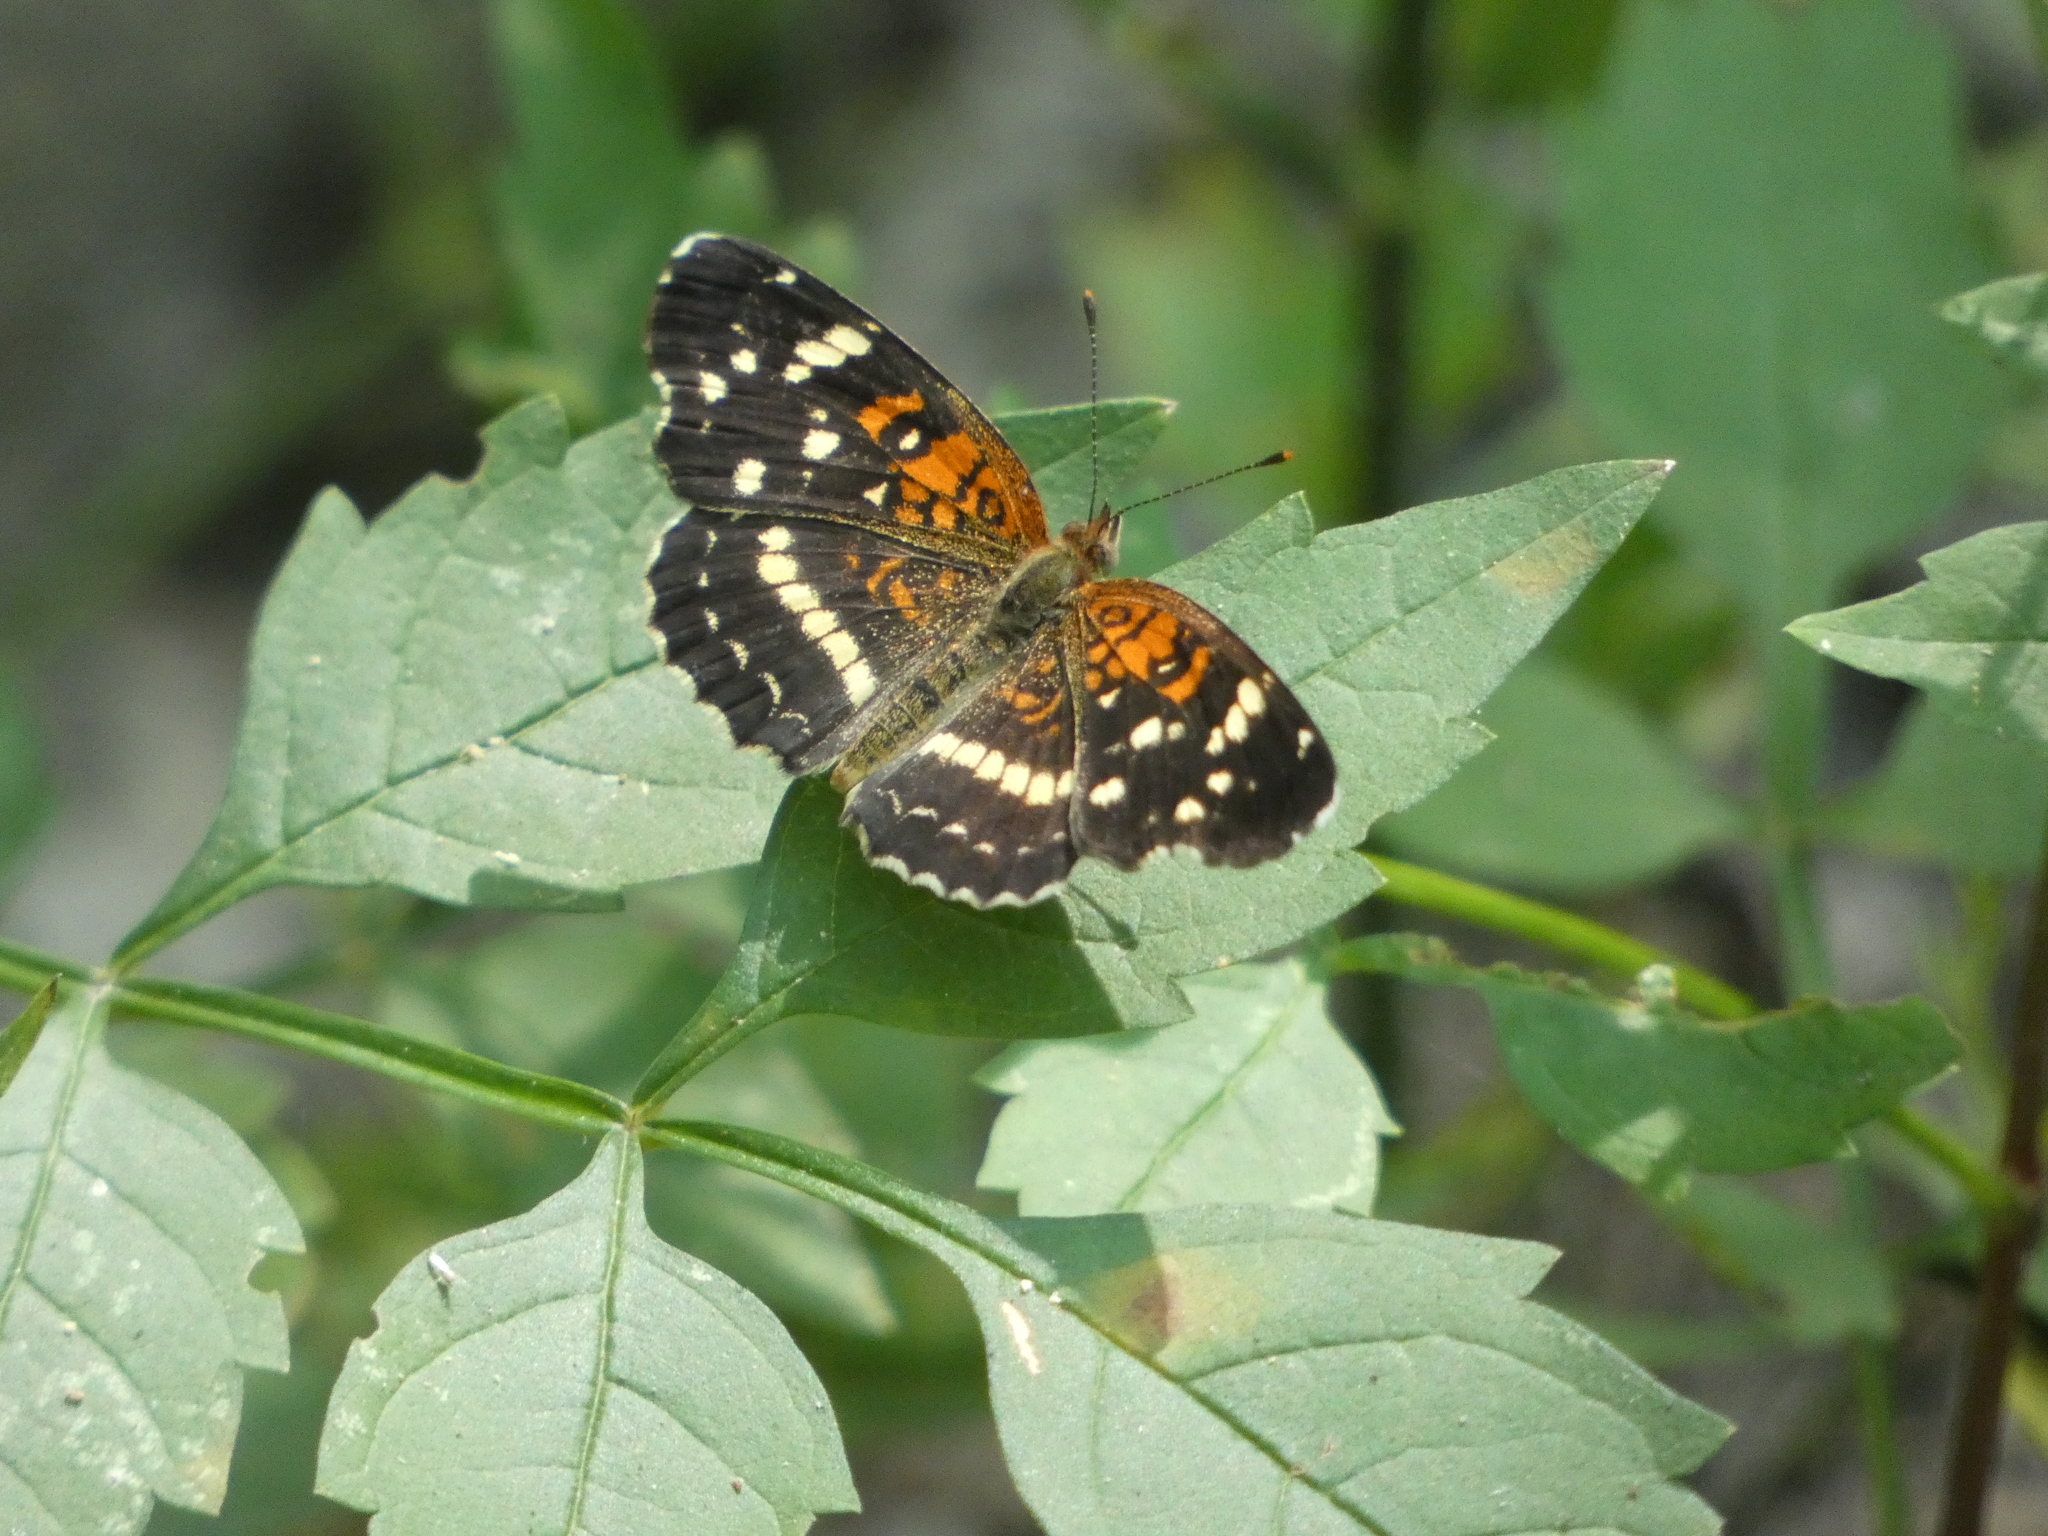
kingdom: Animalia
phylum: Arthropoda
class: Insecta
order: Lepidoptera
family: Nymphalidae
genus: Anthanassa
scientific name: Anthanassa taxana
